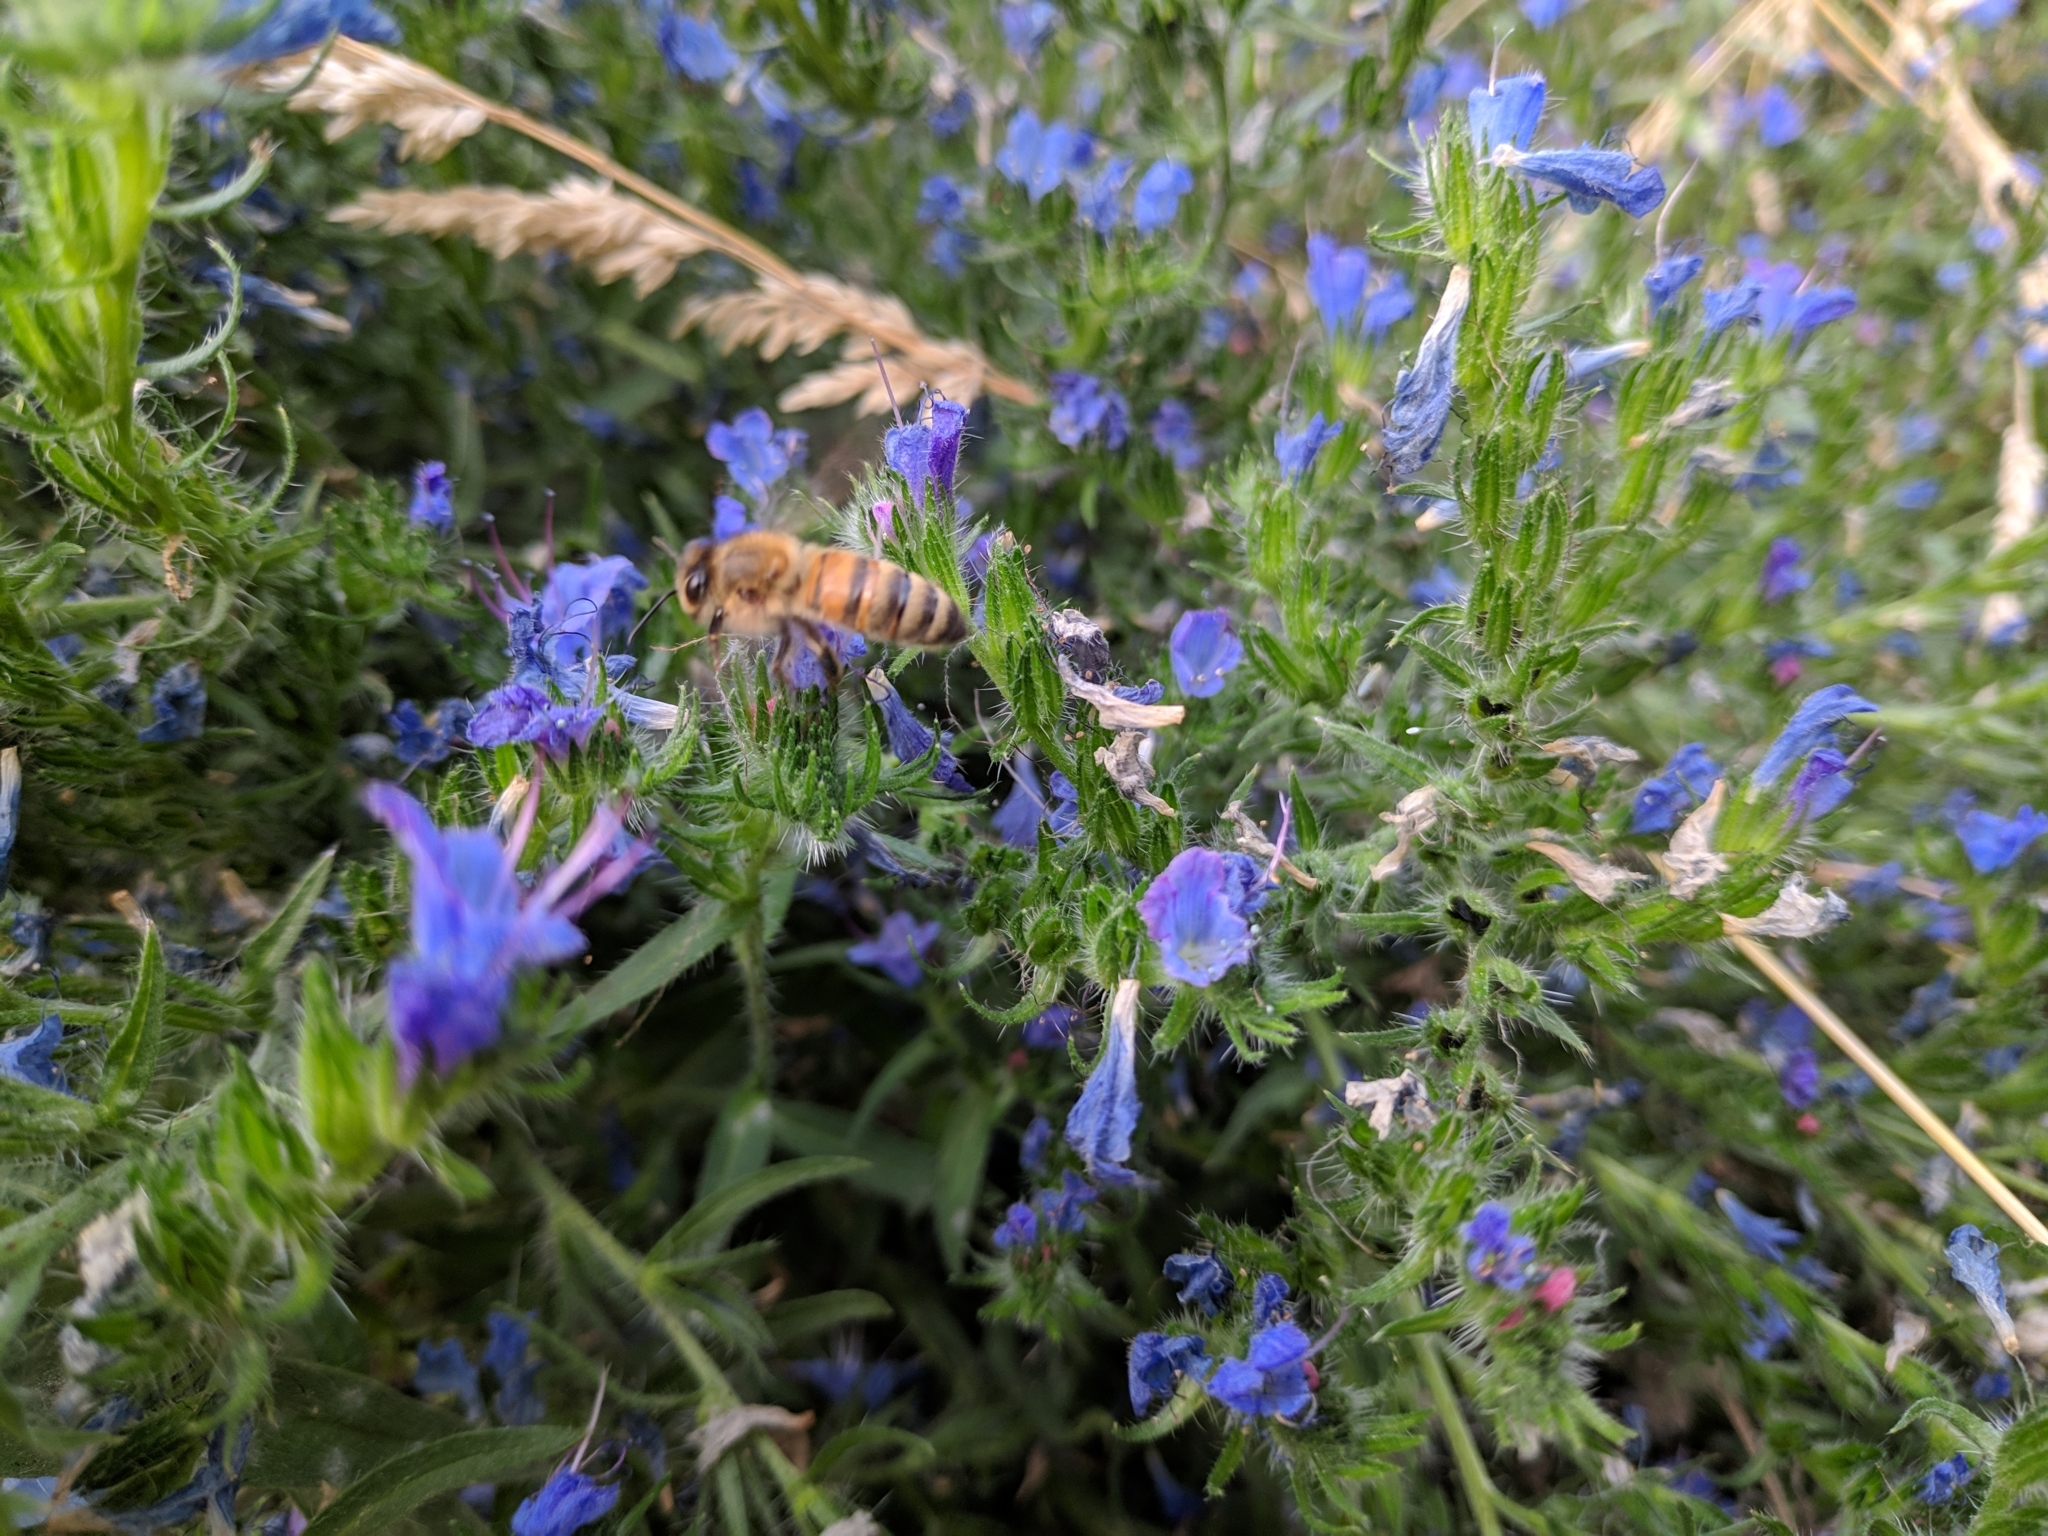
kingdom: Animalia
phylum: Arthropoda
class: Insecta
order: Hymenoptera
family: Apidae
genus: Apis
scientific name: Apis mellifera
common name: Honey bee
